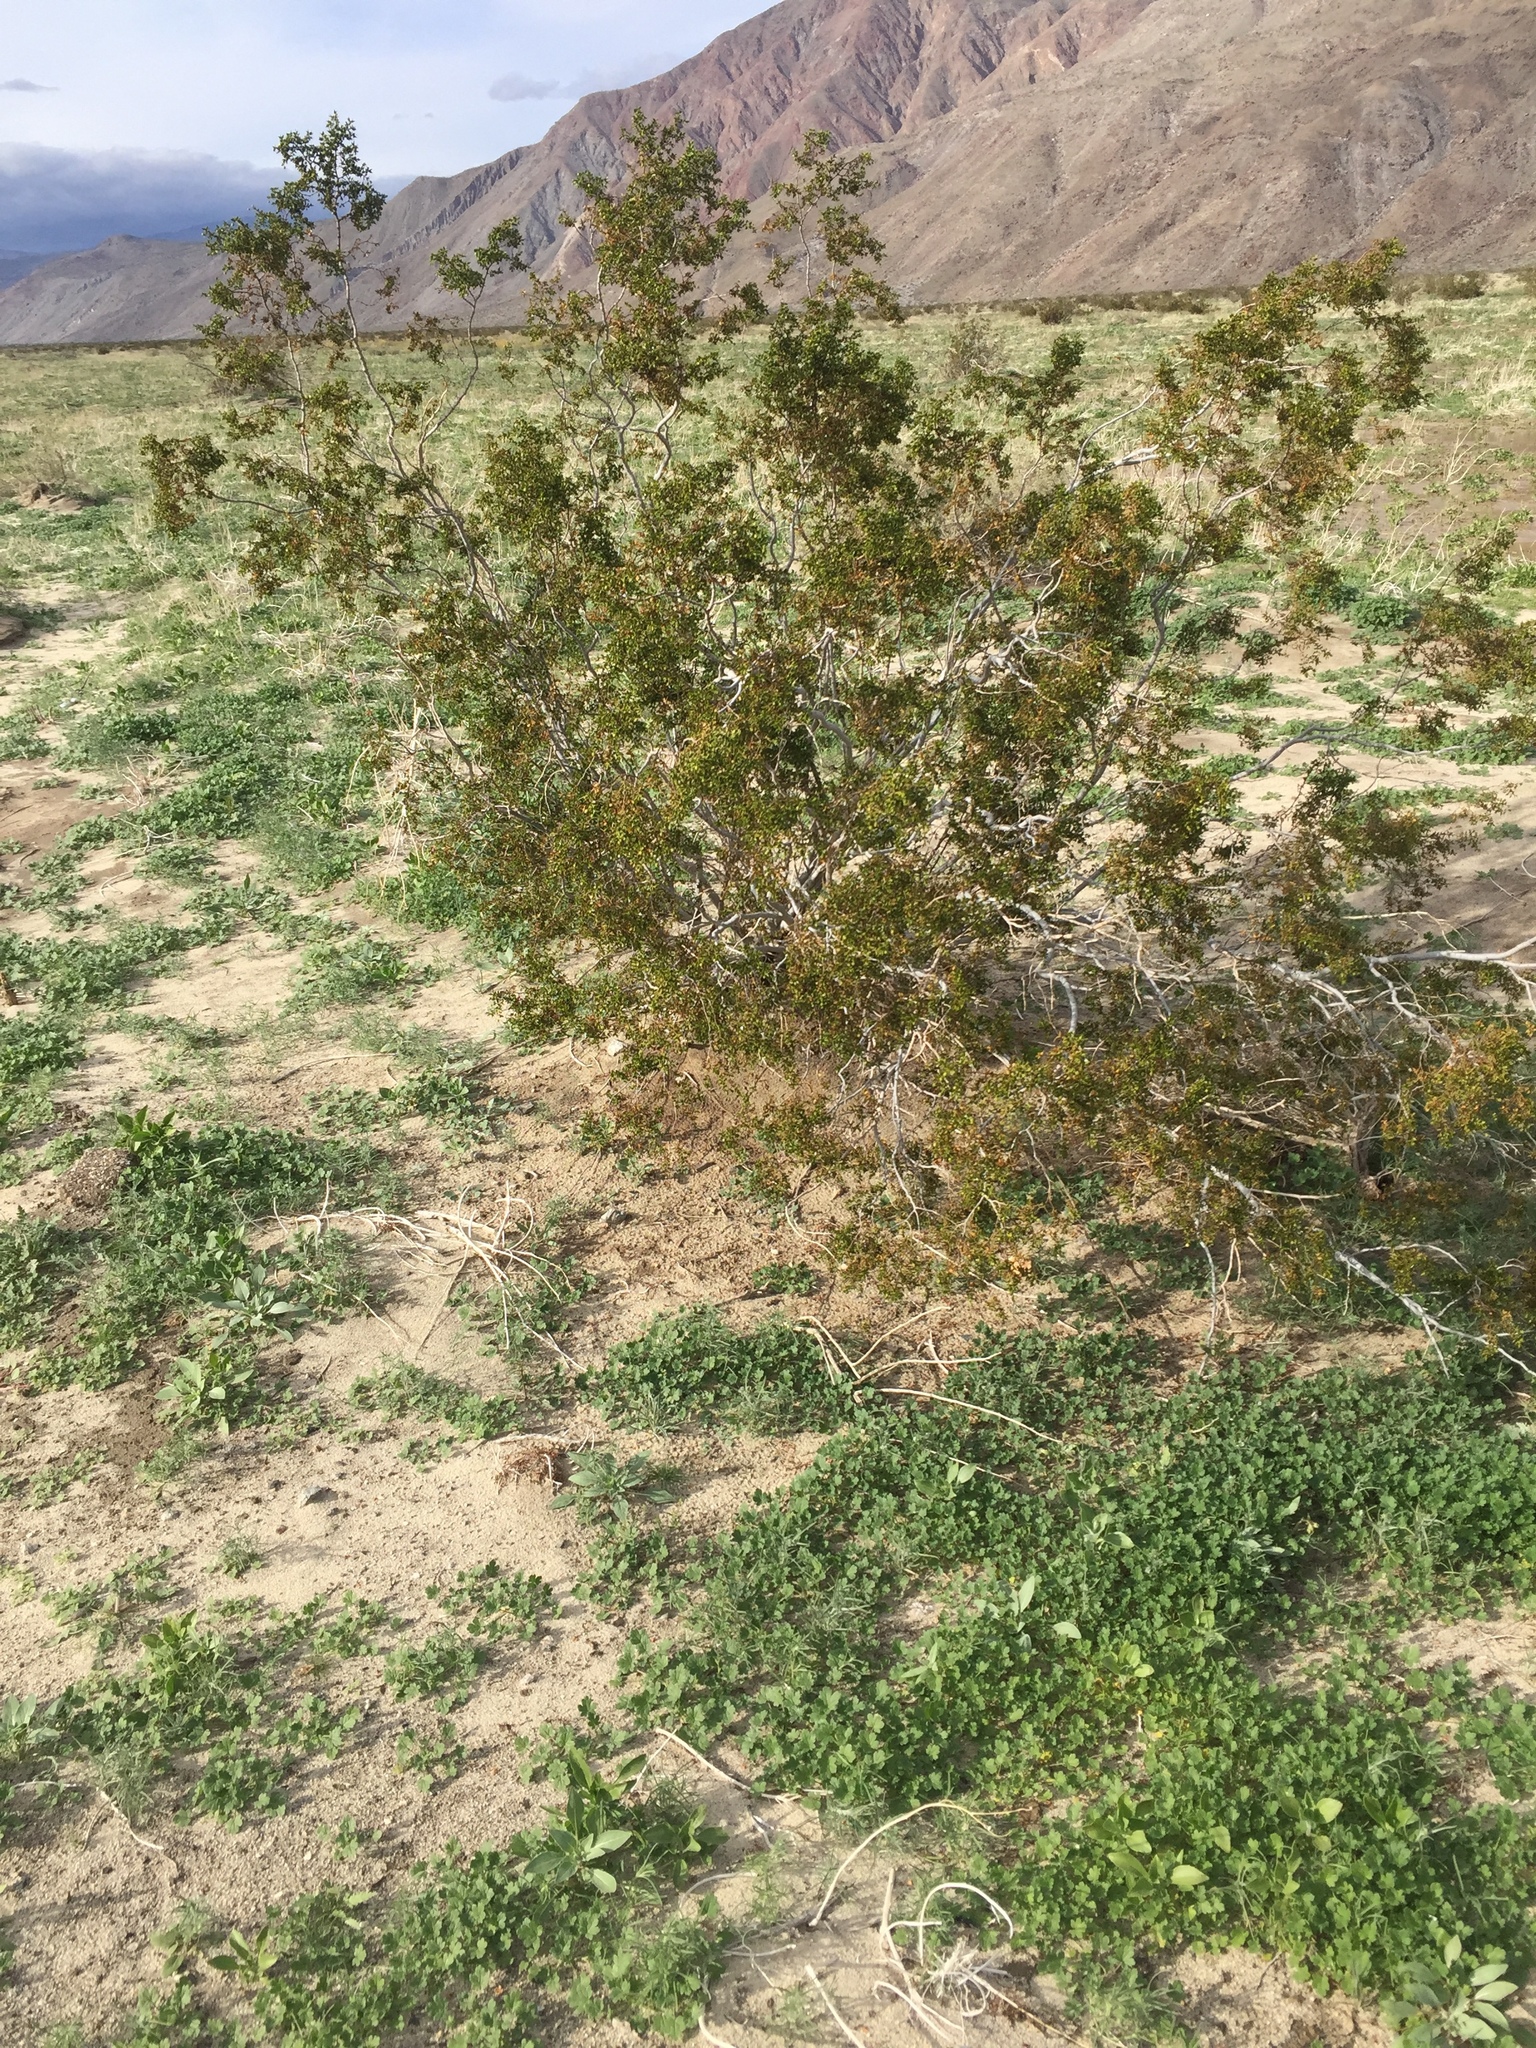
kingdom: Plantae
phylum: Tracheophyta
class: Magnoliopsida
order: Zygophyllales
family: Zygophyllaceae
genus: Larrea
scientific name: Larrea tridentata
